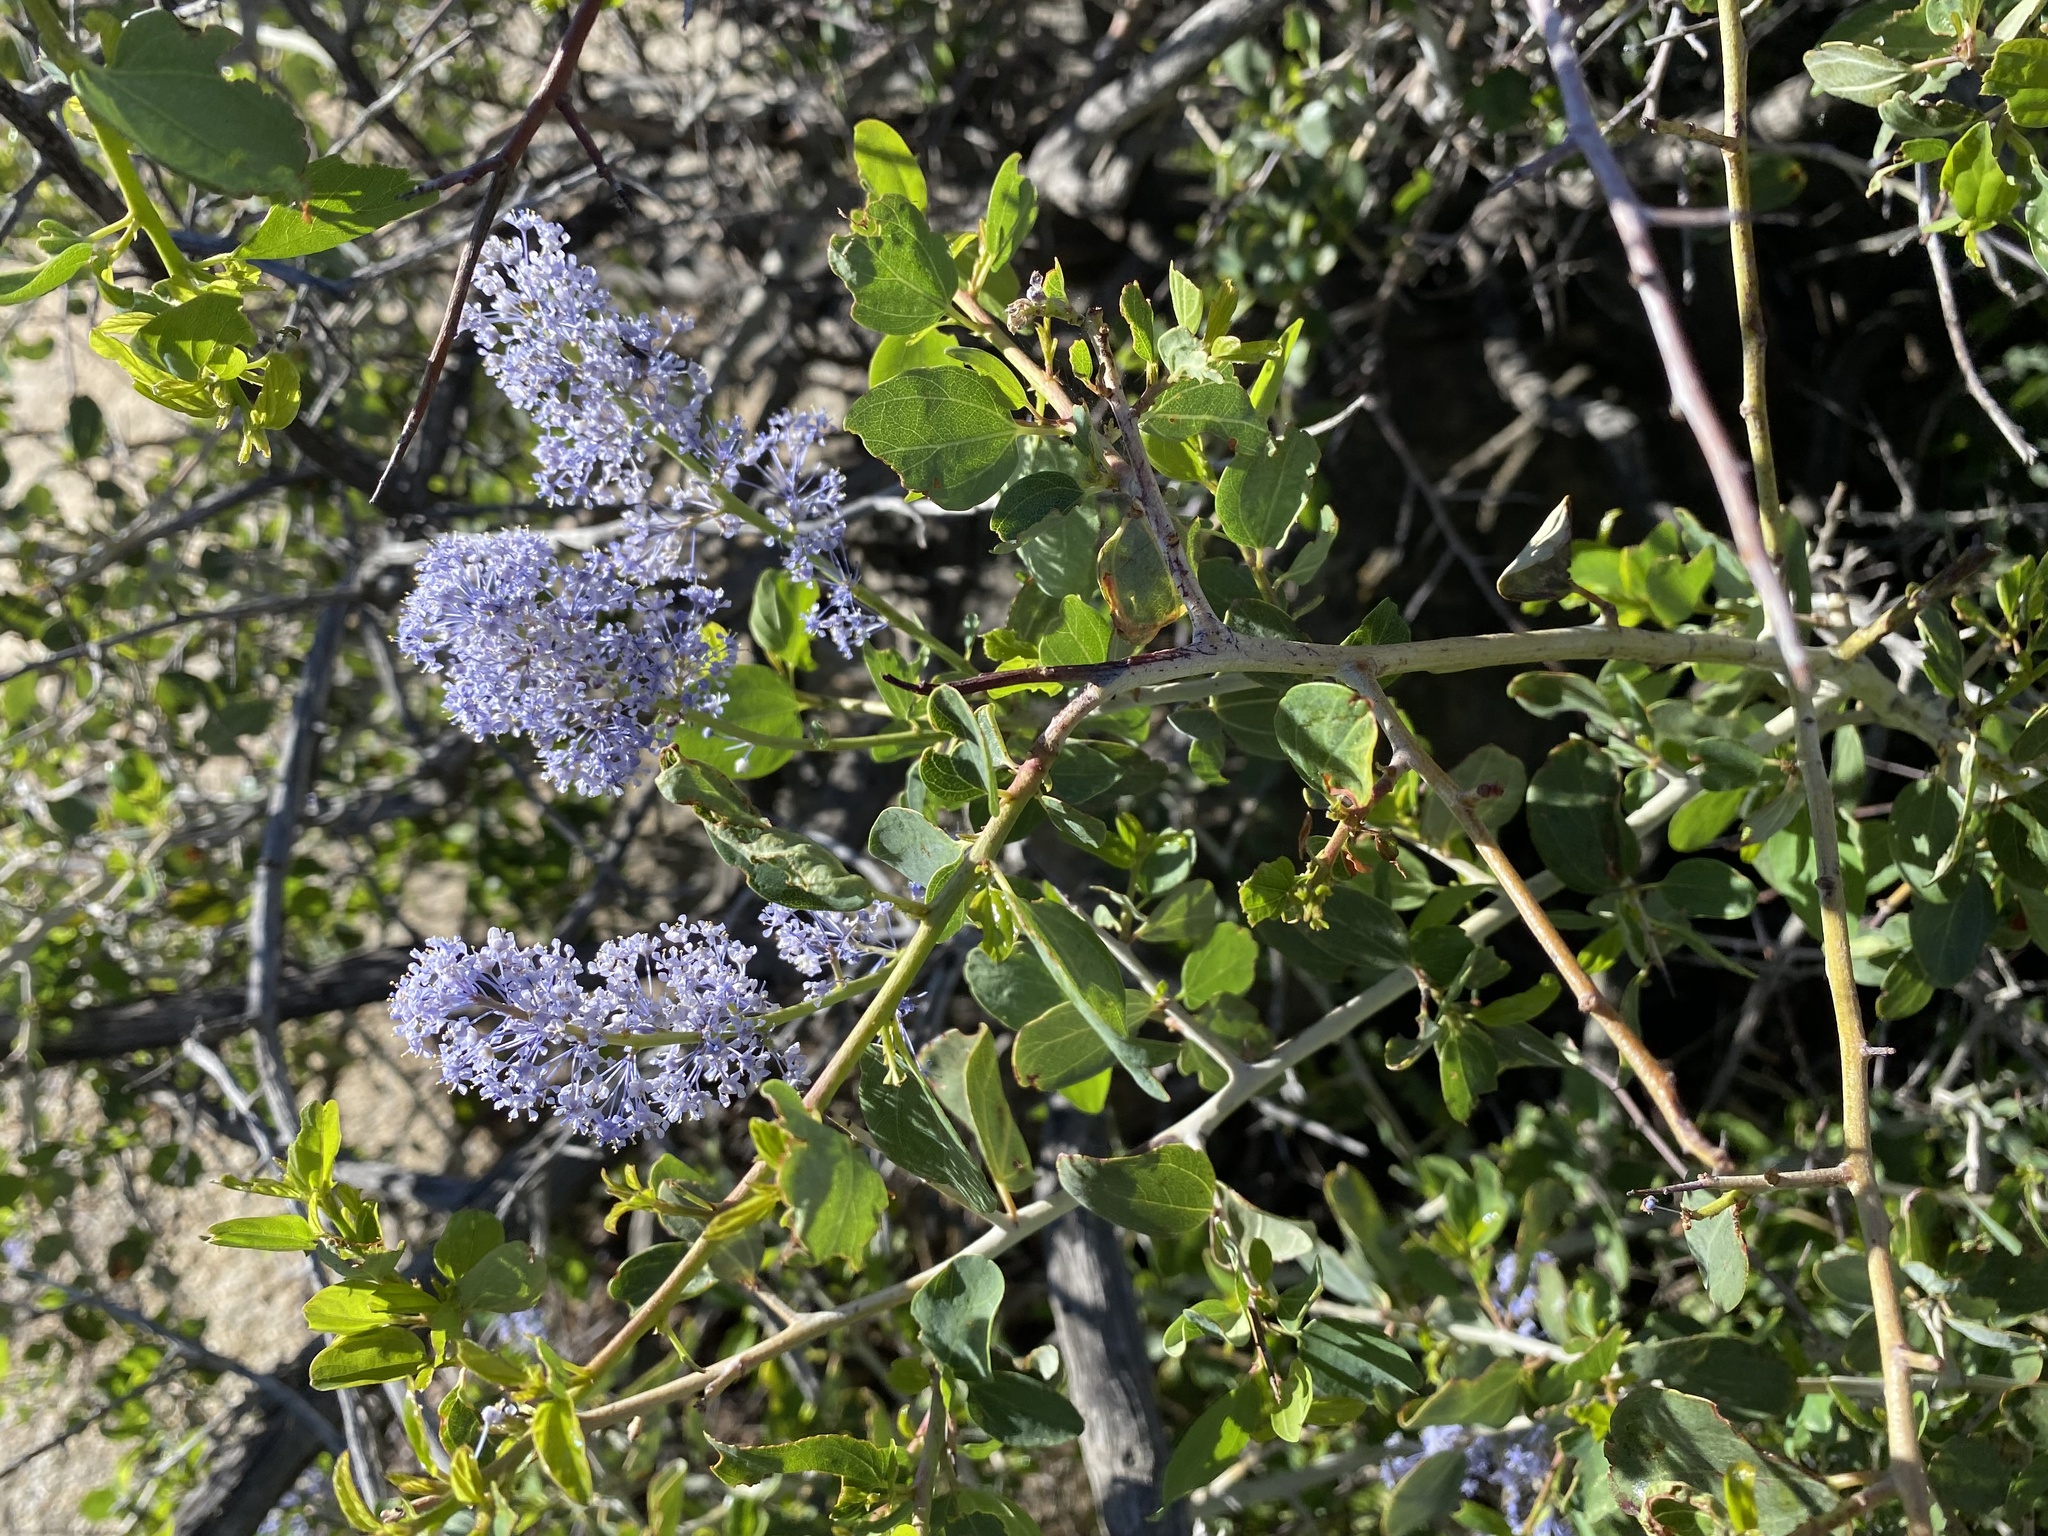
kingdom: Plantae
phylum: Tracheophyta
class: Magnoliopsida
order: Rosales
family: Rhamnaceae
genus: Ceanothus
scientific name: Ceanothus leucodermis
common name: Chaparral whitethorn
